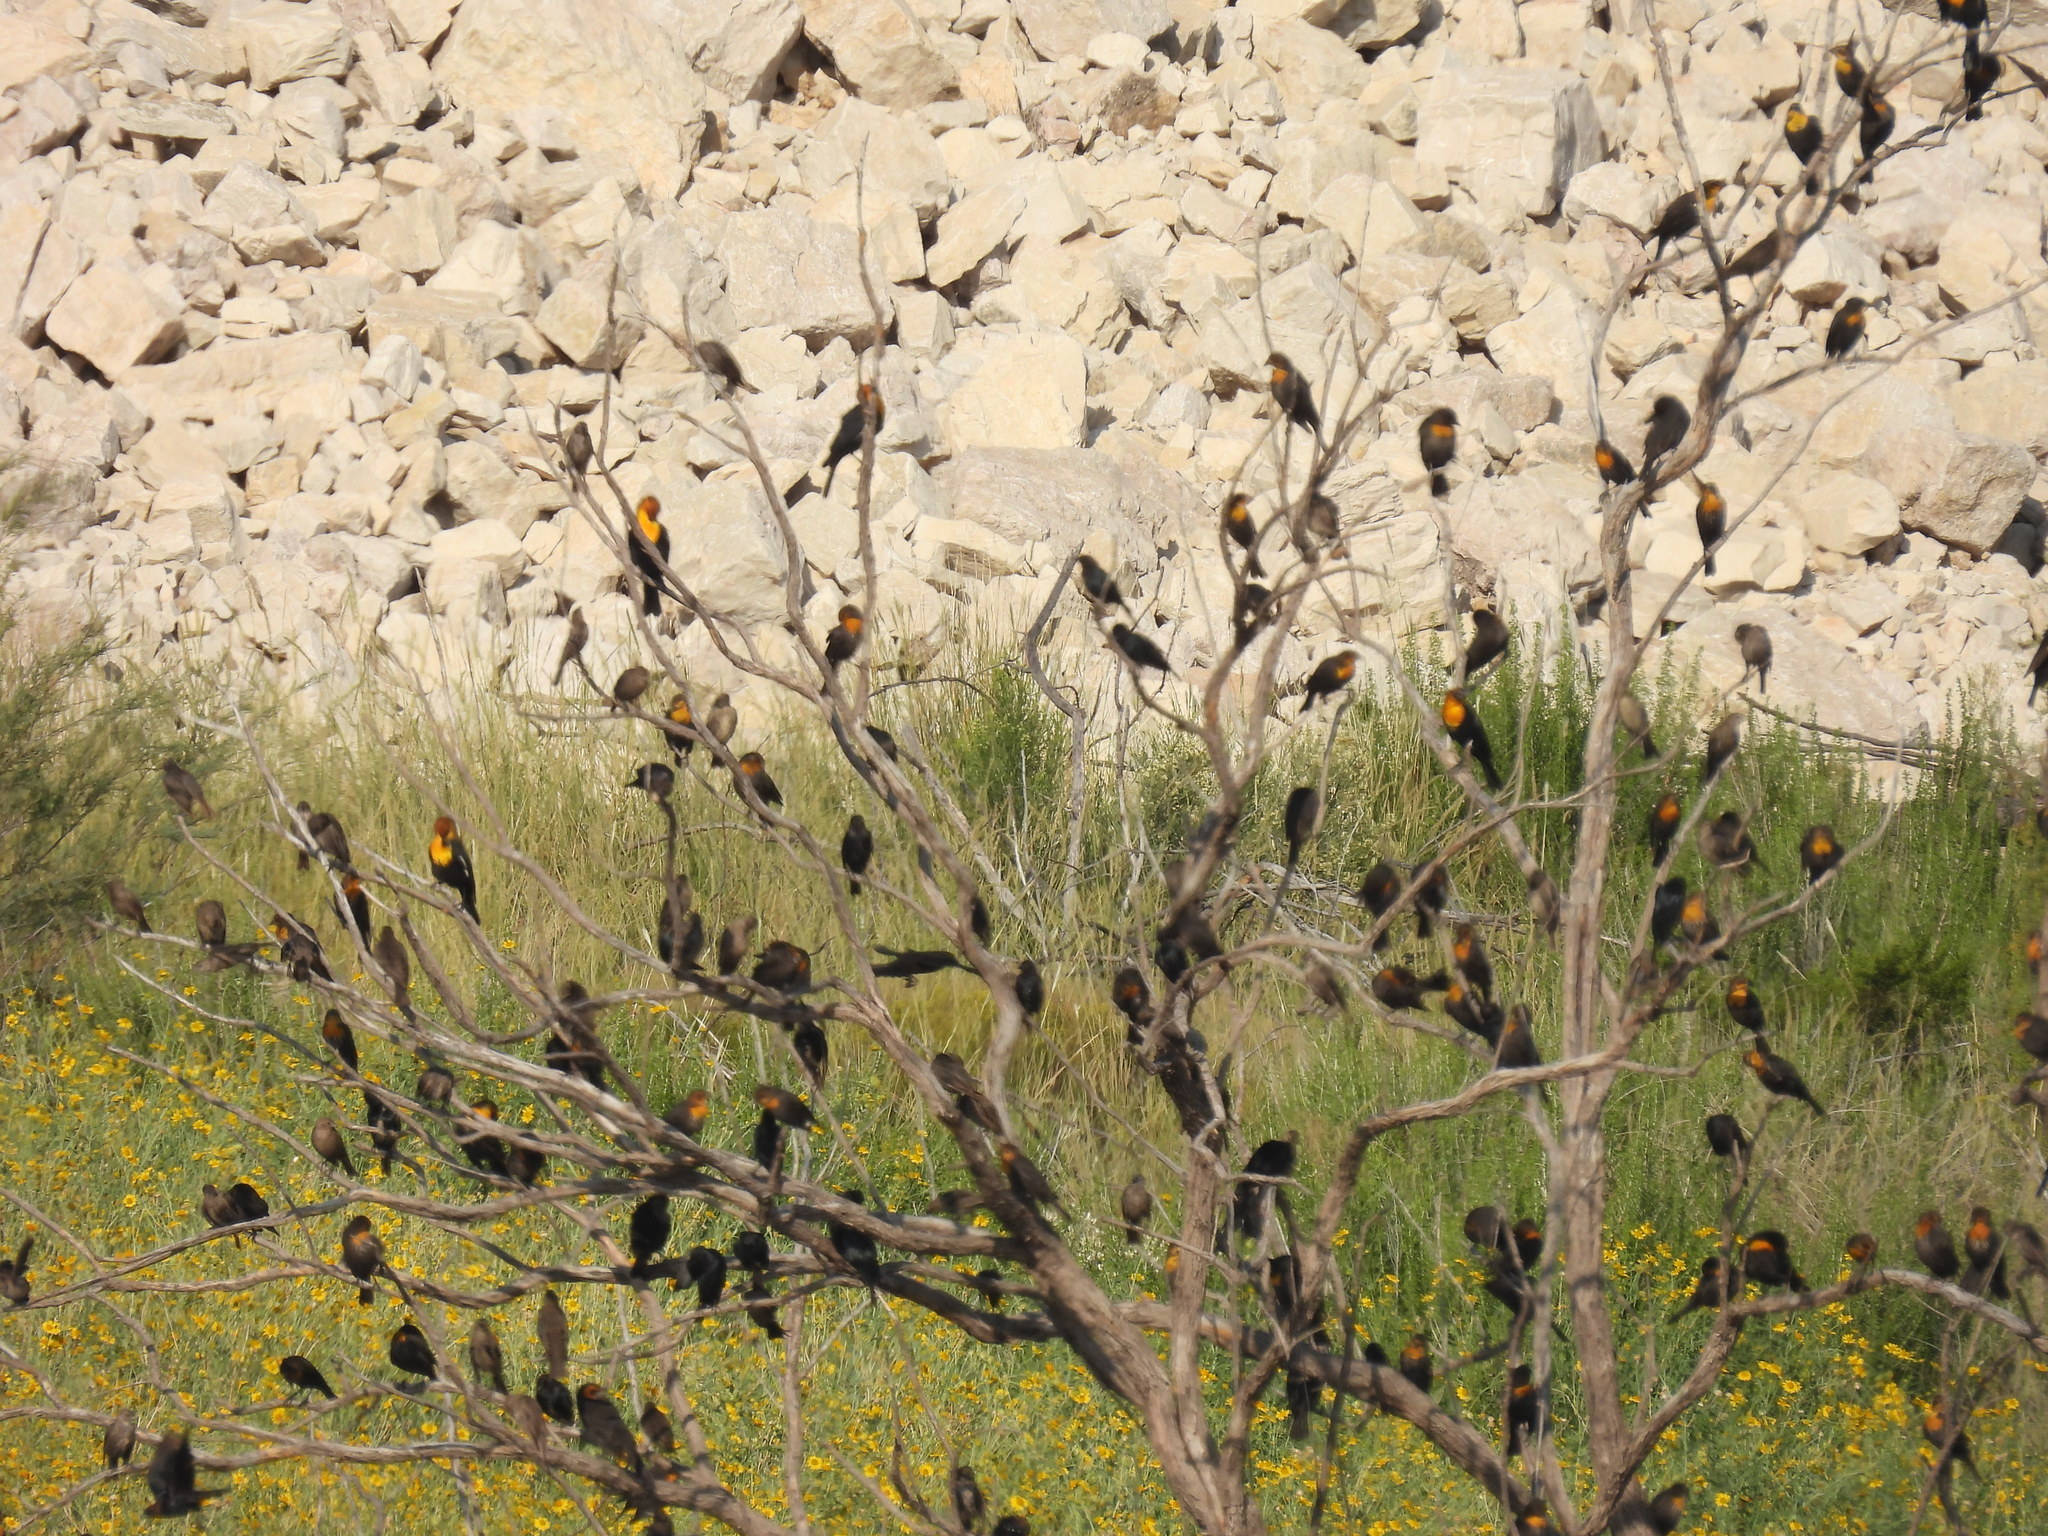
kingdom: Animalia
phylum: Chordata
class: Aves
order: Passeriformes
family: Icteridae
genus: Xanthocephalus
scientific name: Xanthocephalus xanthocephalus
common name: Yellow-headed blackbird
